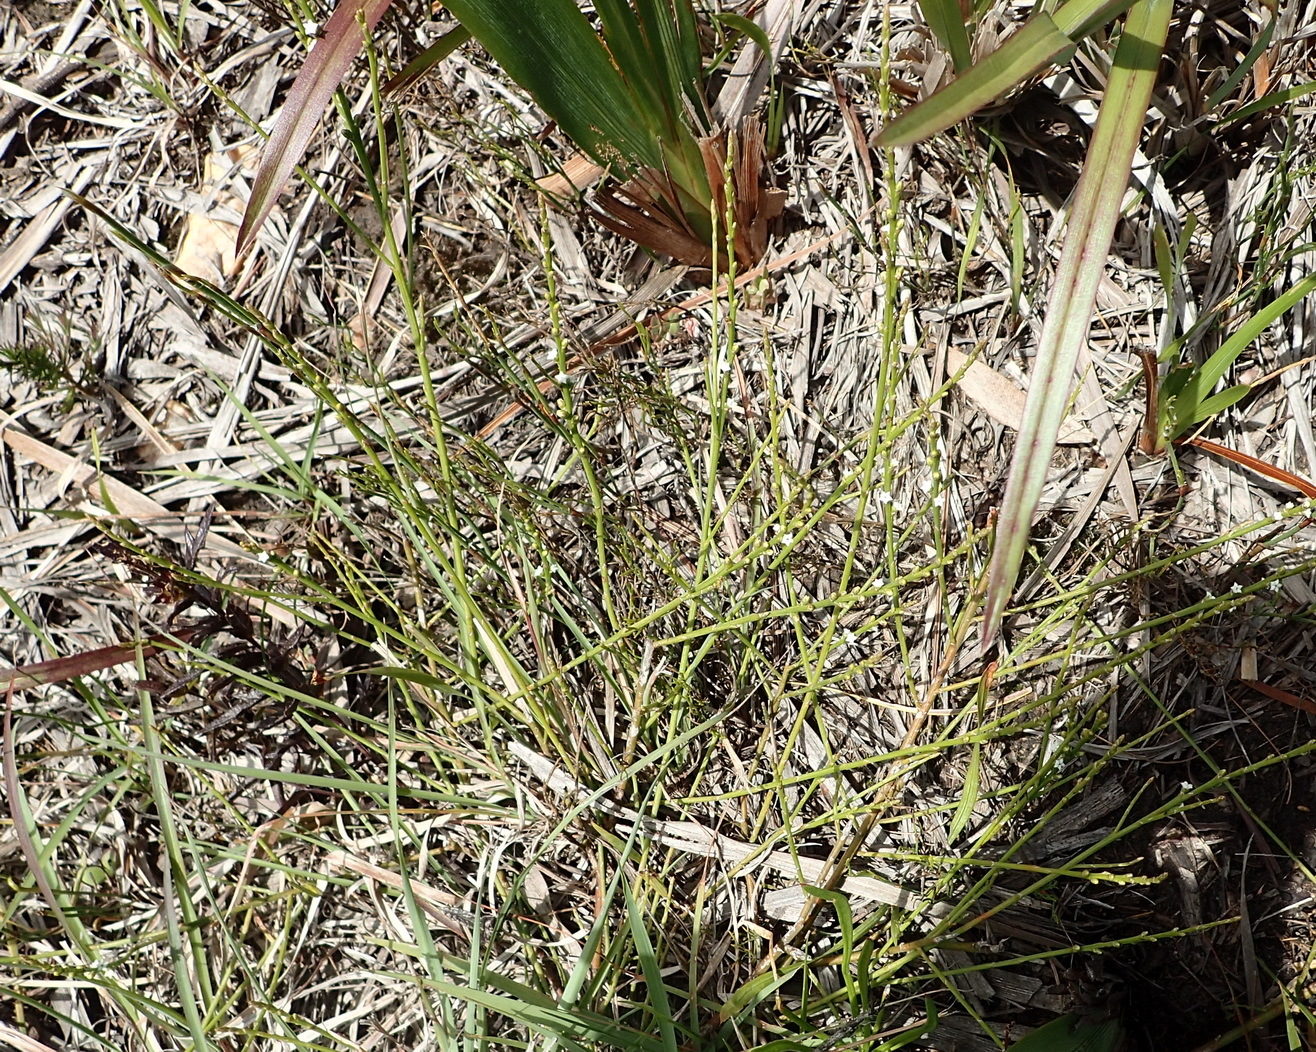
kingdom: Plantae
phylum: Tracheophyta
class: Magnoliopsida
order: Santalales
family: Thesiaceae
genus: Thesium
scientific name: Thesium junceum
